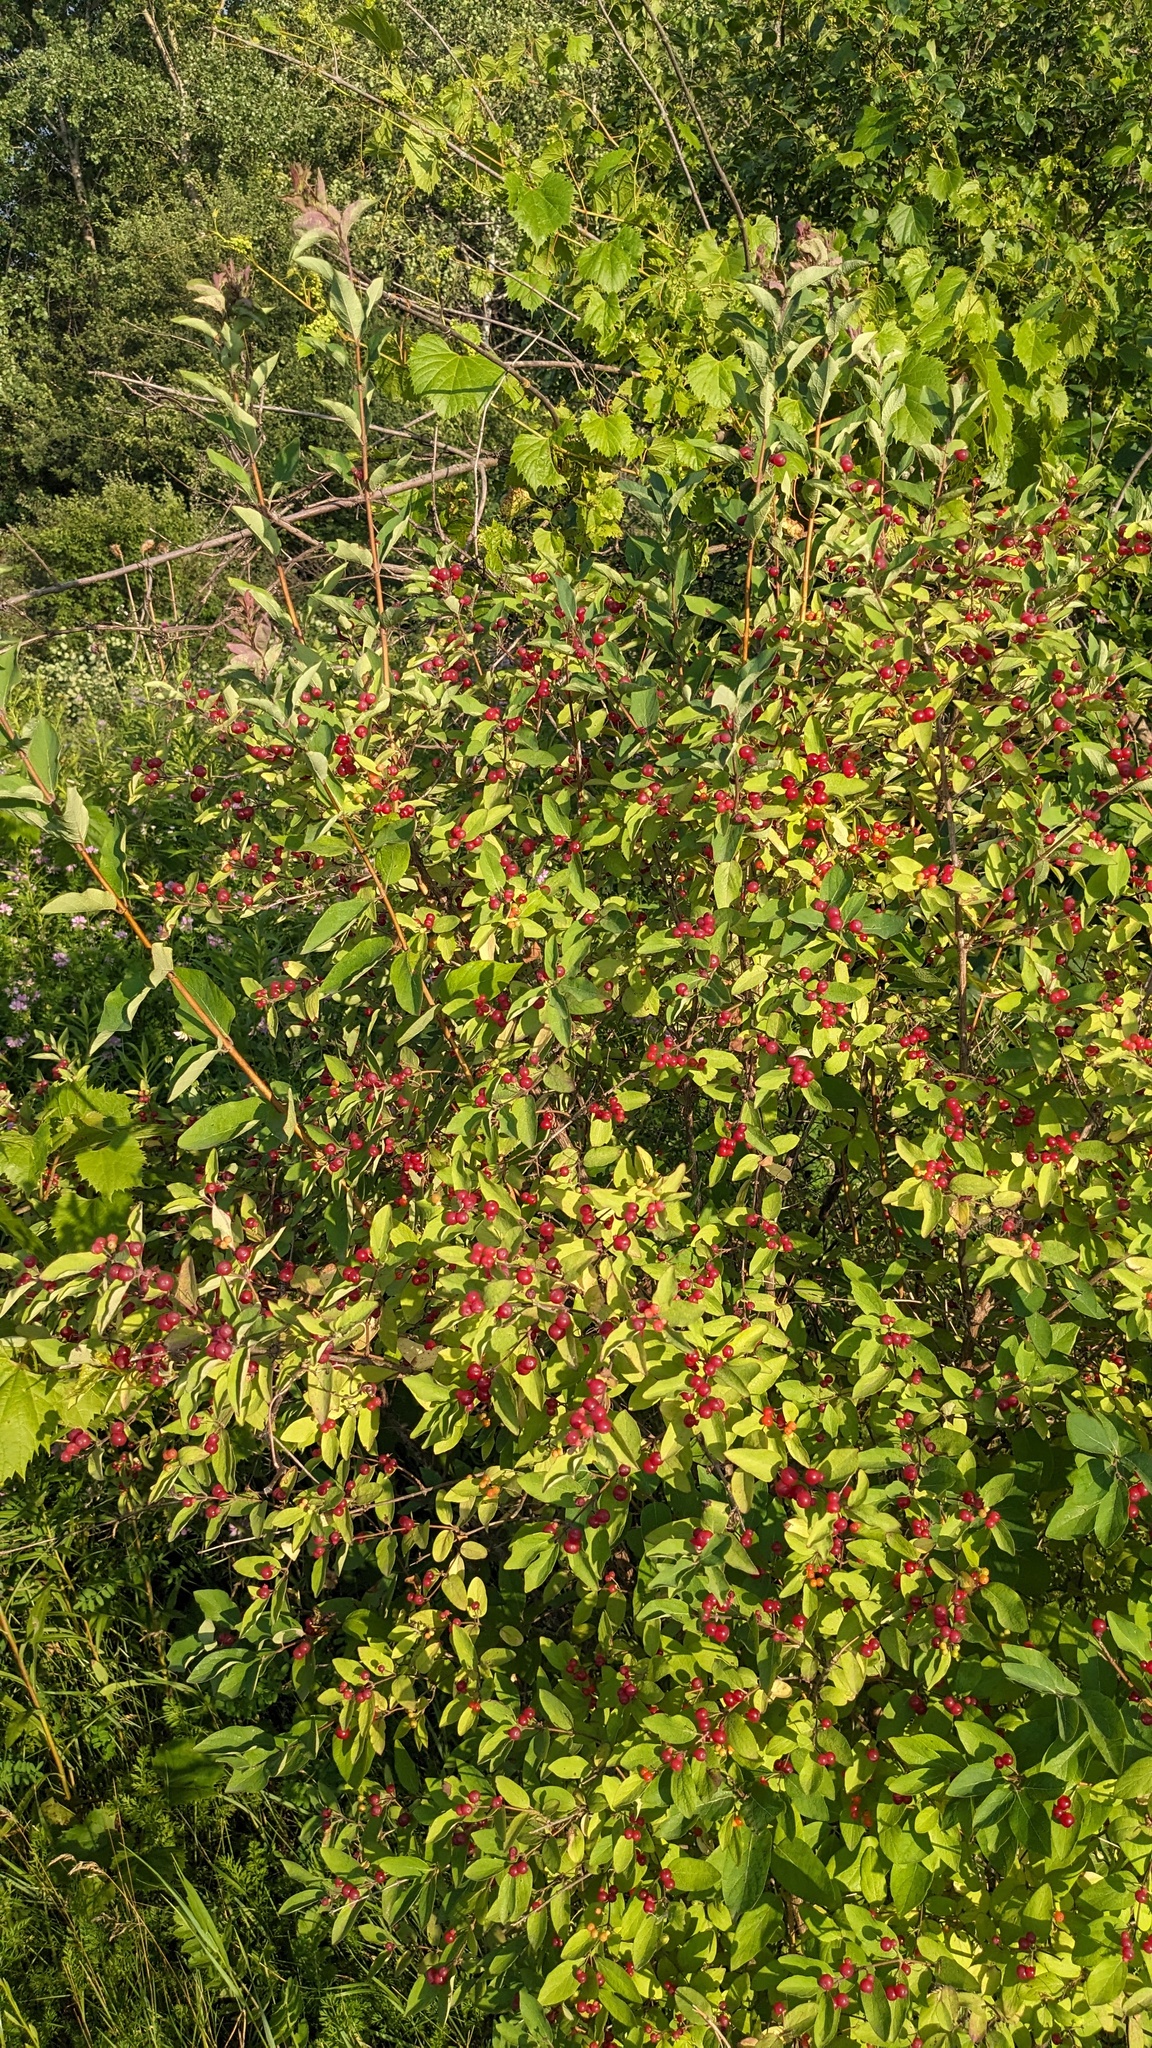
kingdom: Plantae
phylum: Tracheophyta
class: Magnoliopsida
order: Dipsacales
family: Caprifoliaceae
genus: Lonicera
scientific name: Lonicera
